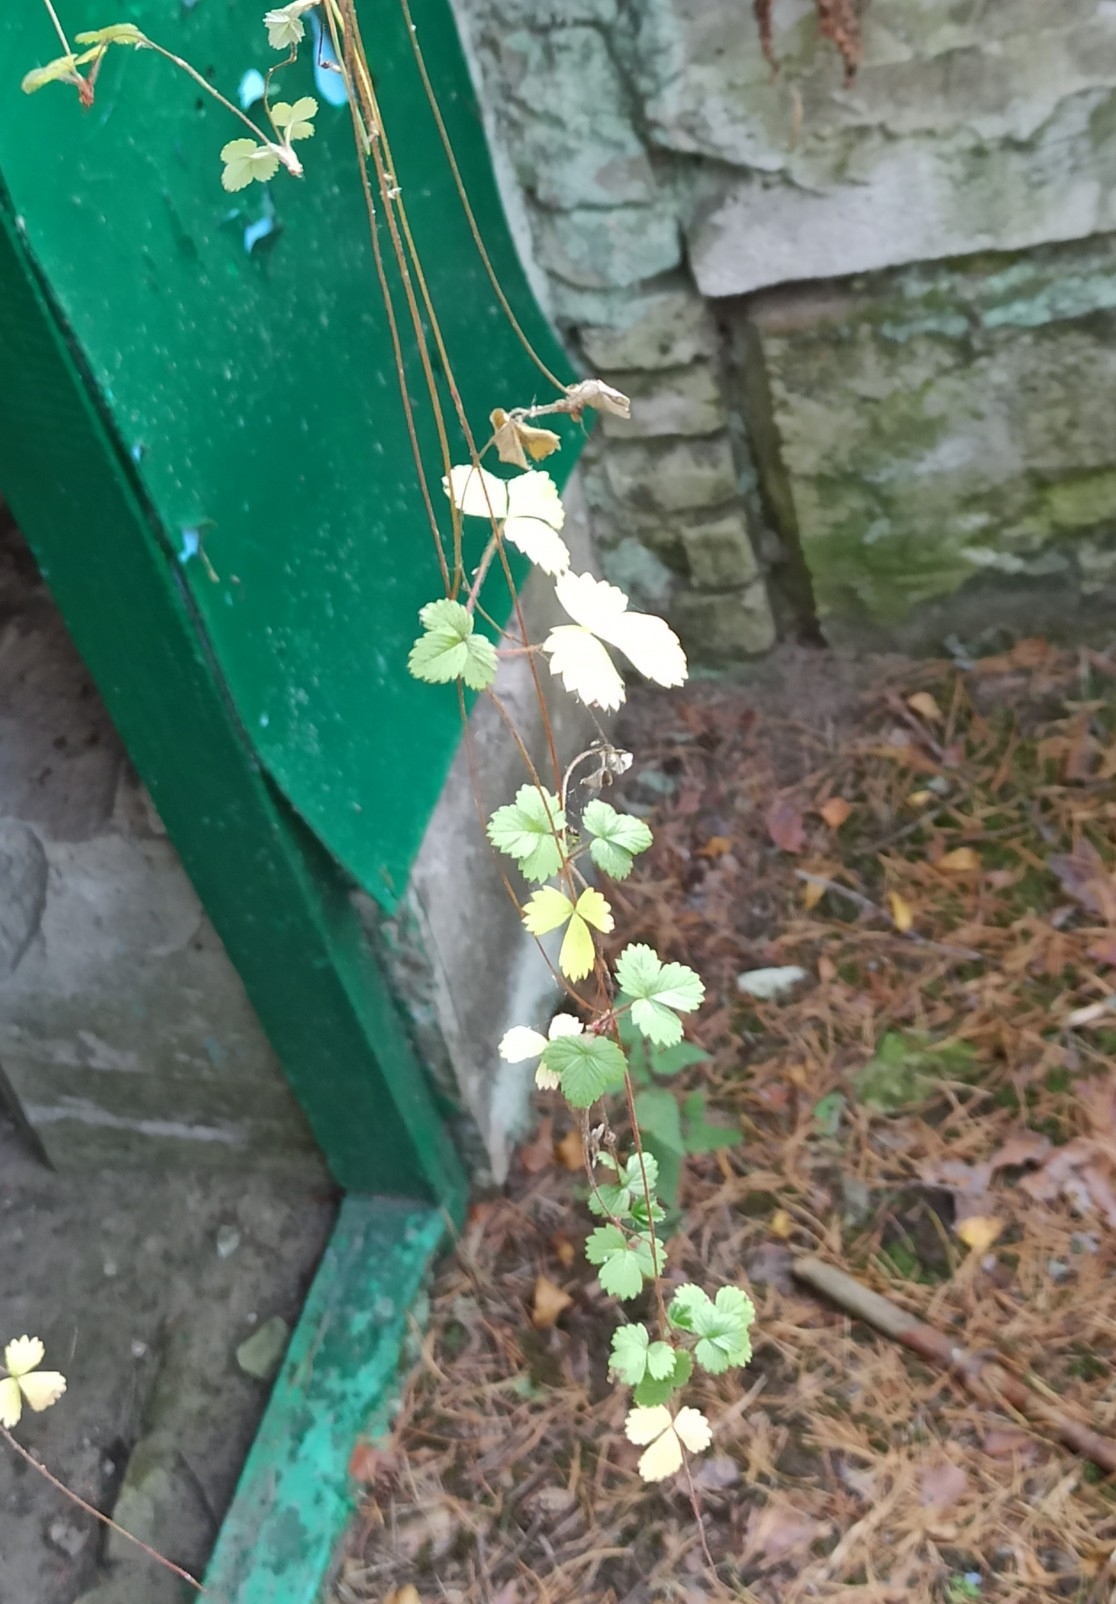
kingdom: Plantae
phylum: Tracheophyta
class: Magnoliopsida
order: Rosales
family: Rosaceae
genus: Fragaria
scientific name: Fragaria vesca
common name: Wild strawberry
